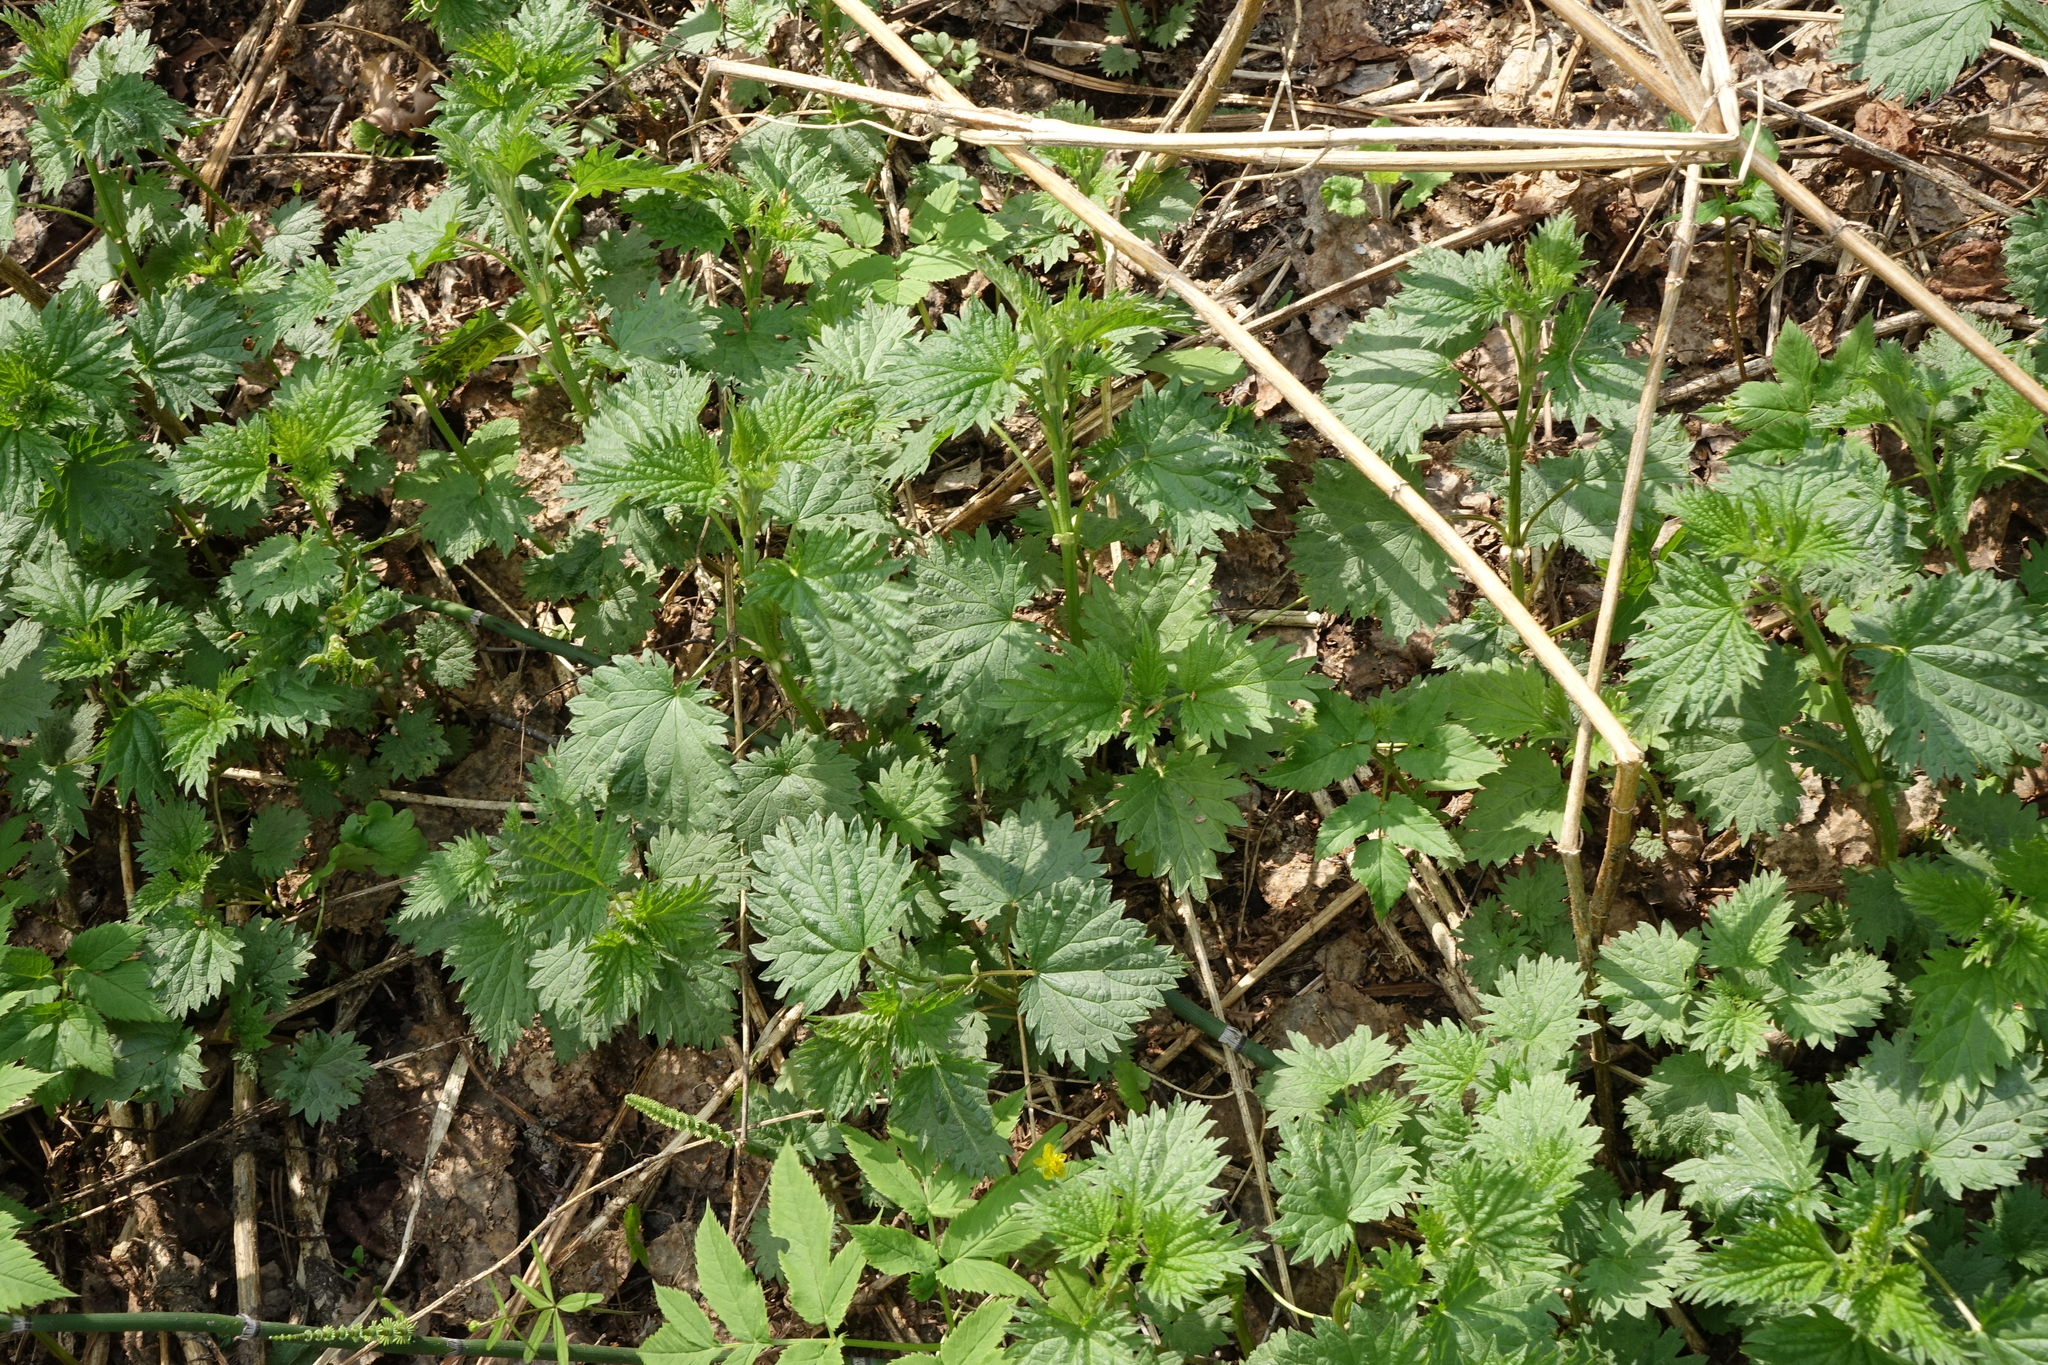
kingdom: Plantae
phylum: Tracheophyta
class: Magnoliopsida
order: Rosales
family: Urticaceae
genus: Urtica
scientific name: Urtica dioica
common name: Common nettle
